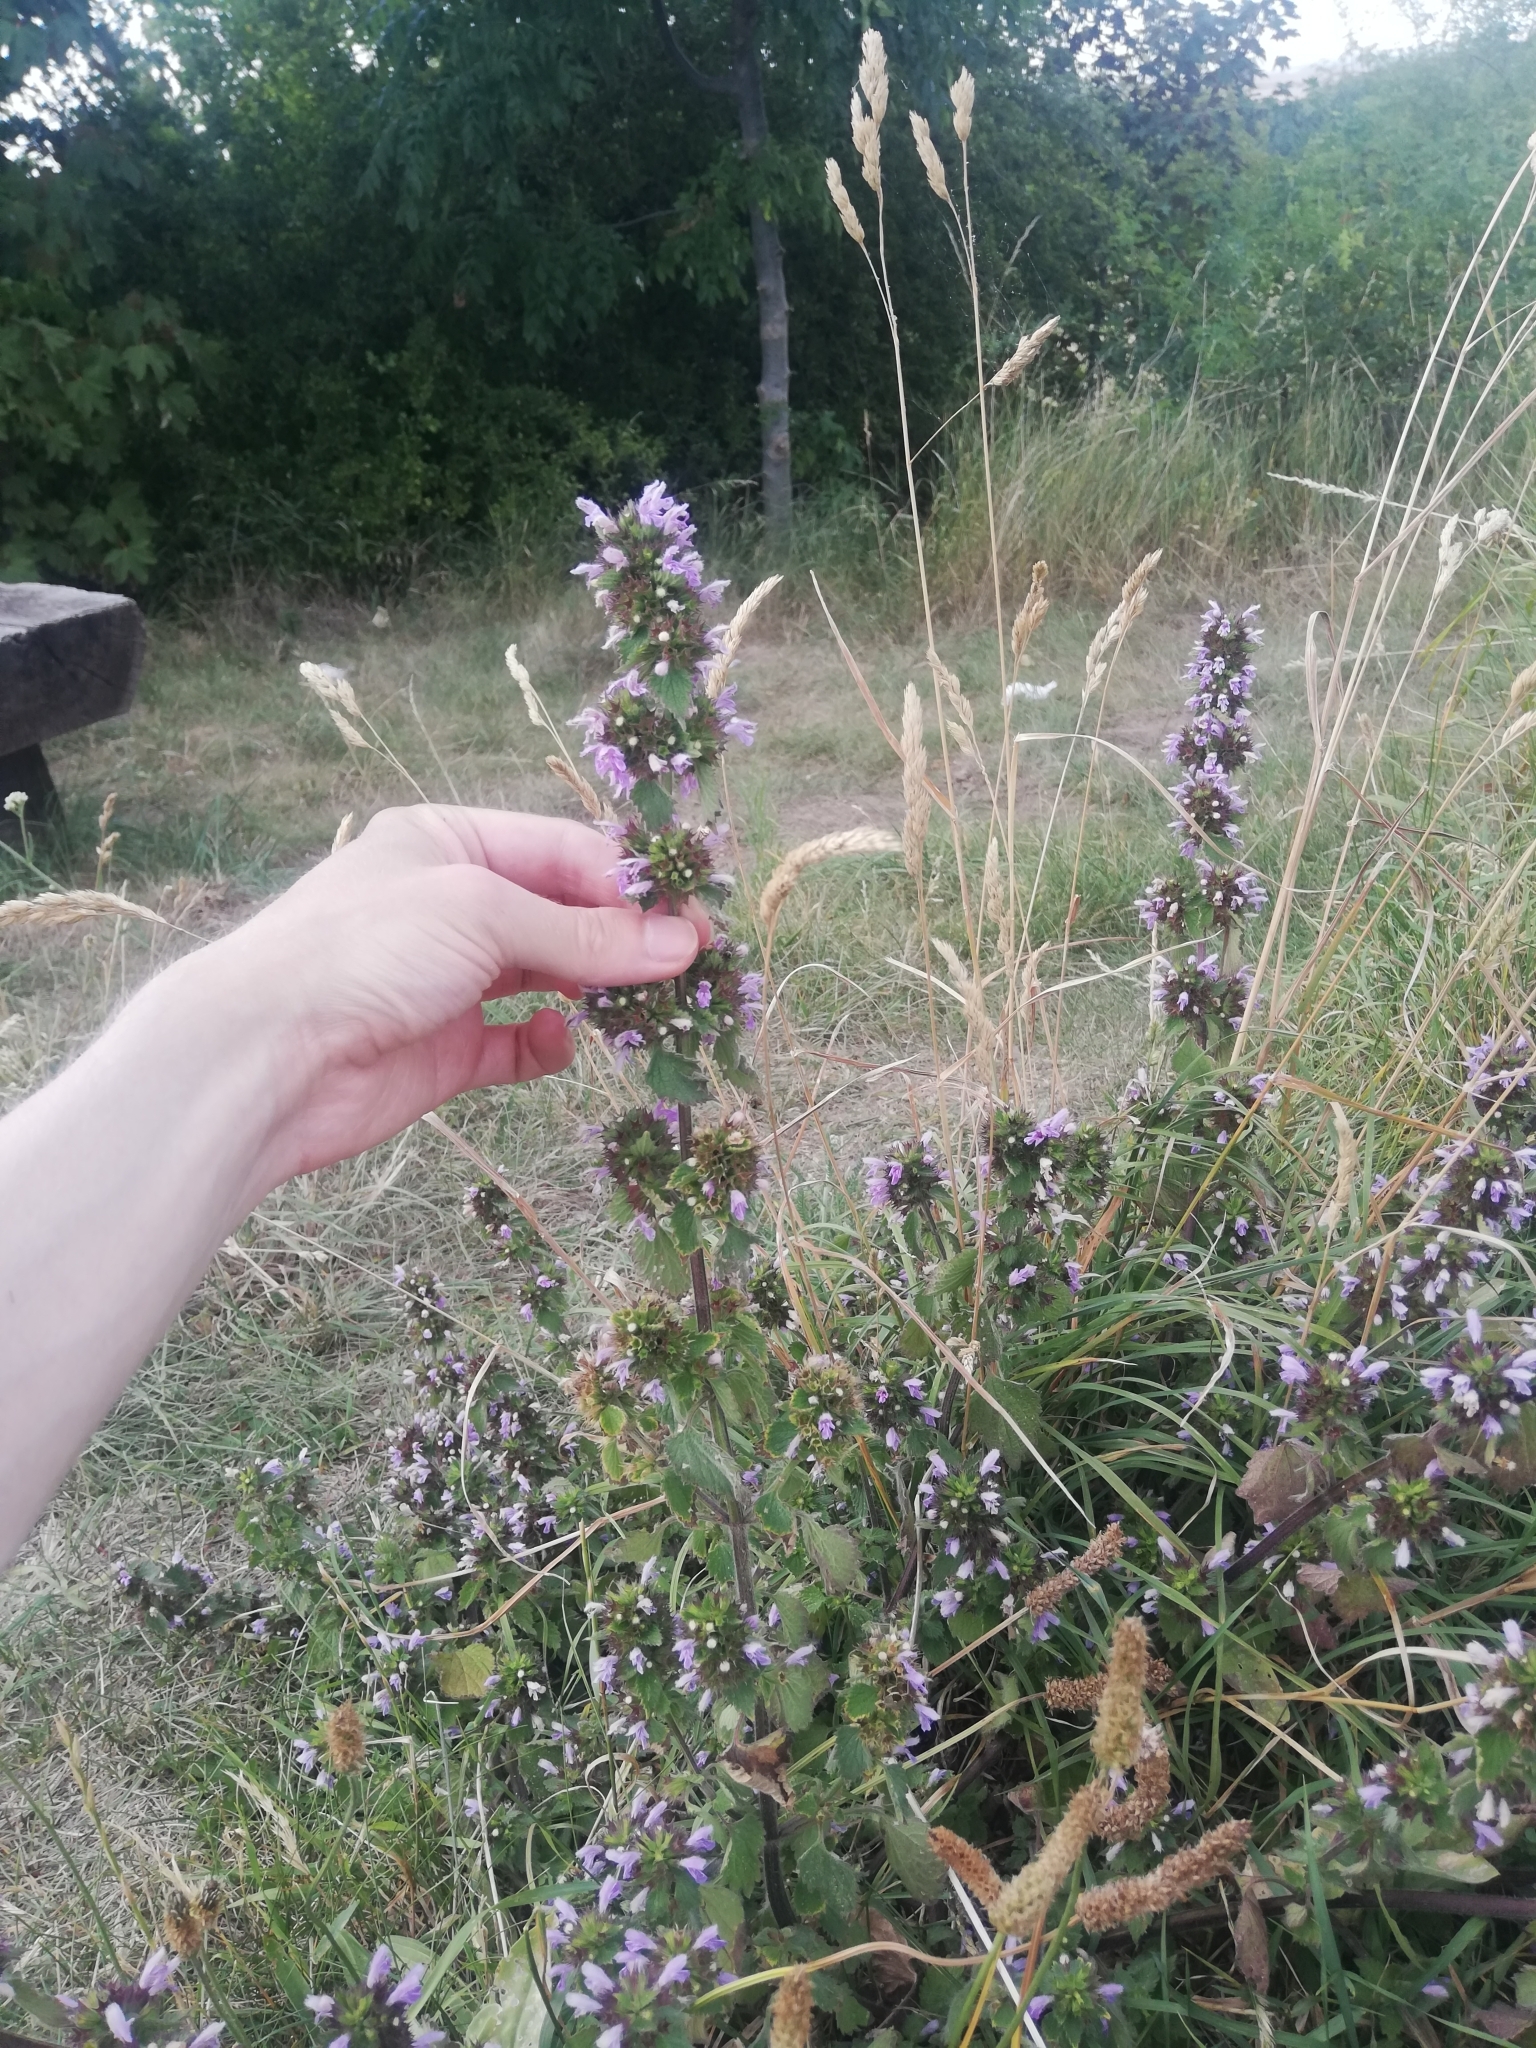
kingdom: Plantae
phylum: Tracheophyta
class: Magnoliopsida
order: Lamiales
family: Lamiaceae
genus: Ballota
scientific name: Ballota nigra
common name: Black horehound
